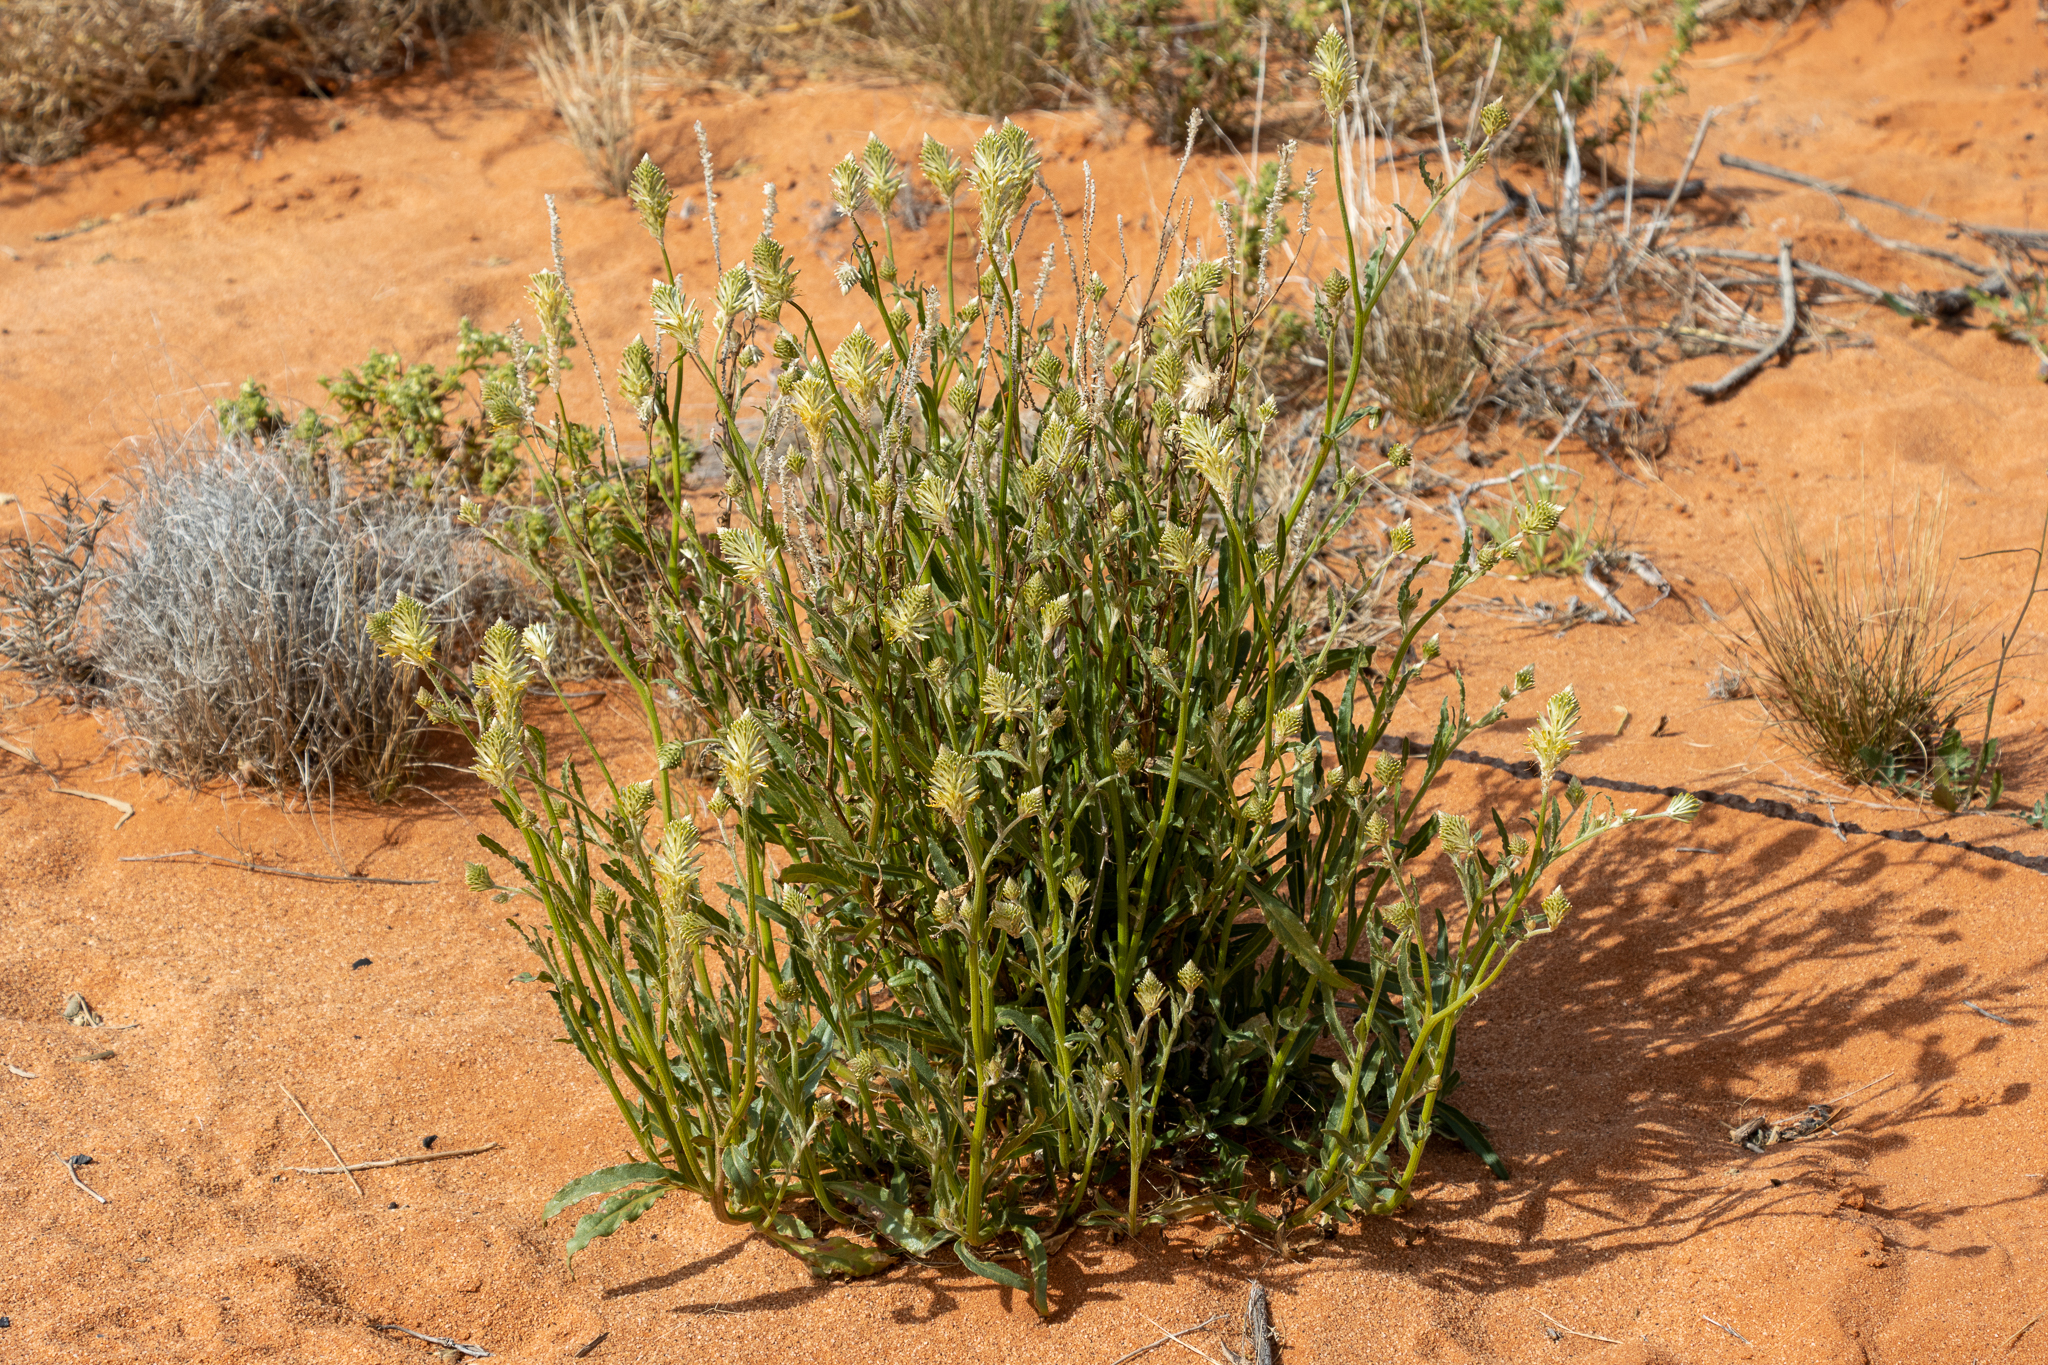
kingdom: Plantae
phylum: Tracheophyta
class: Magnoliopsida
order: Caryophyllales
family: Amaranthaceae
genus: Ptilotus
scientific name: Ptilotus polystachyus
